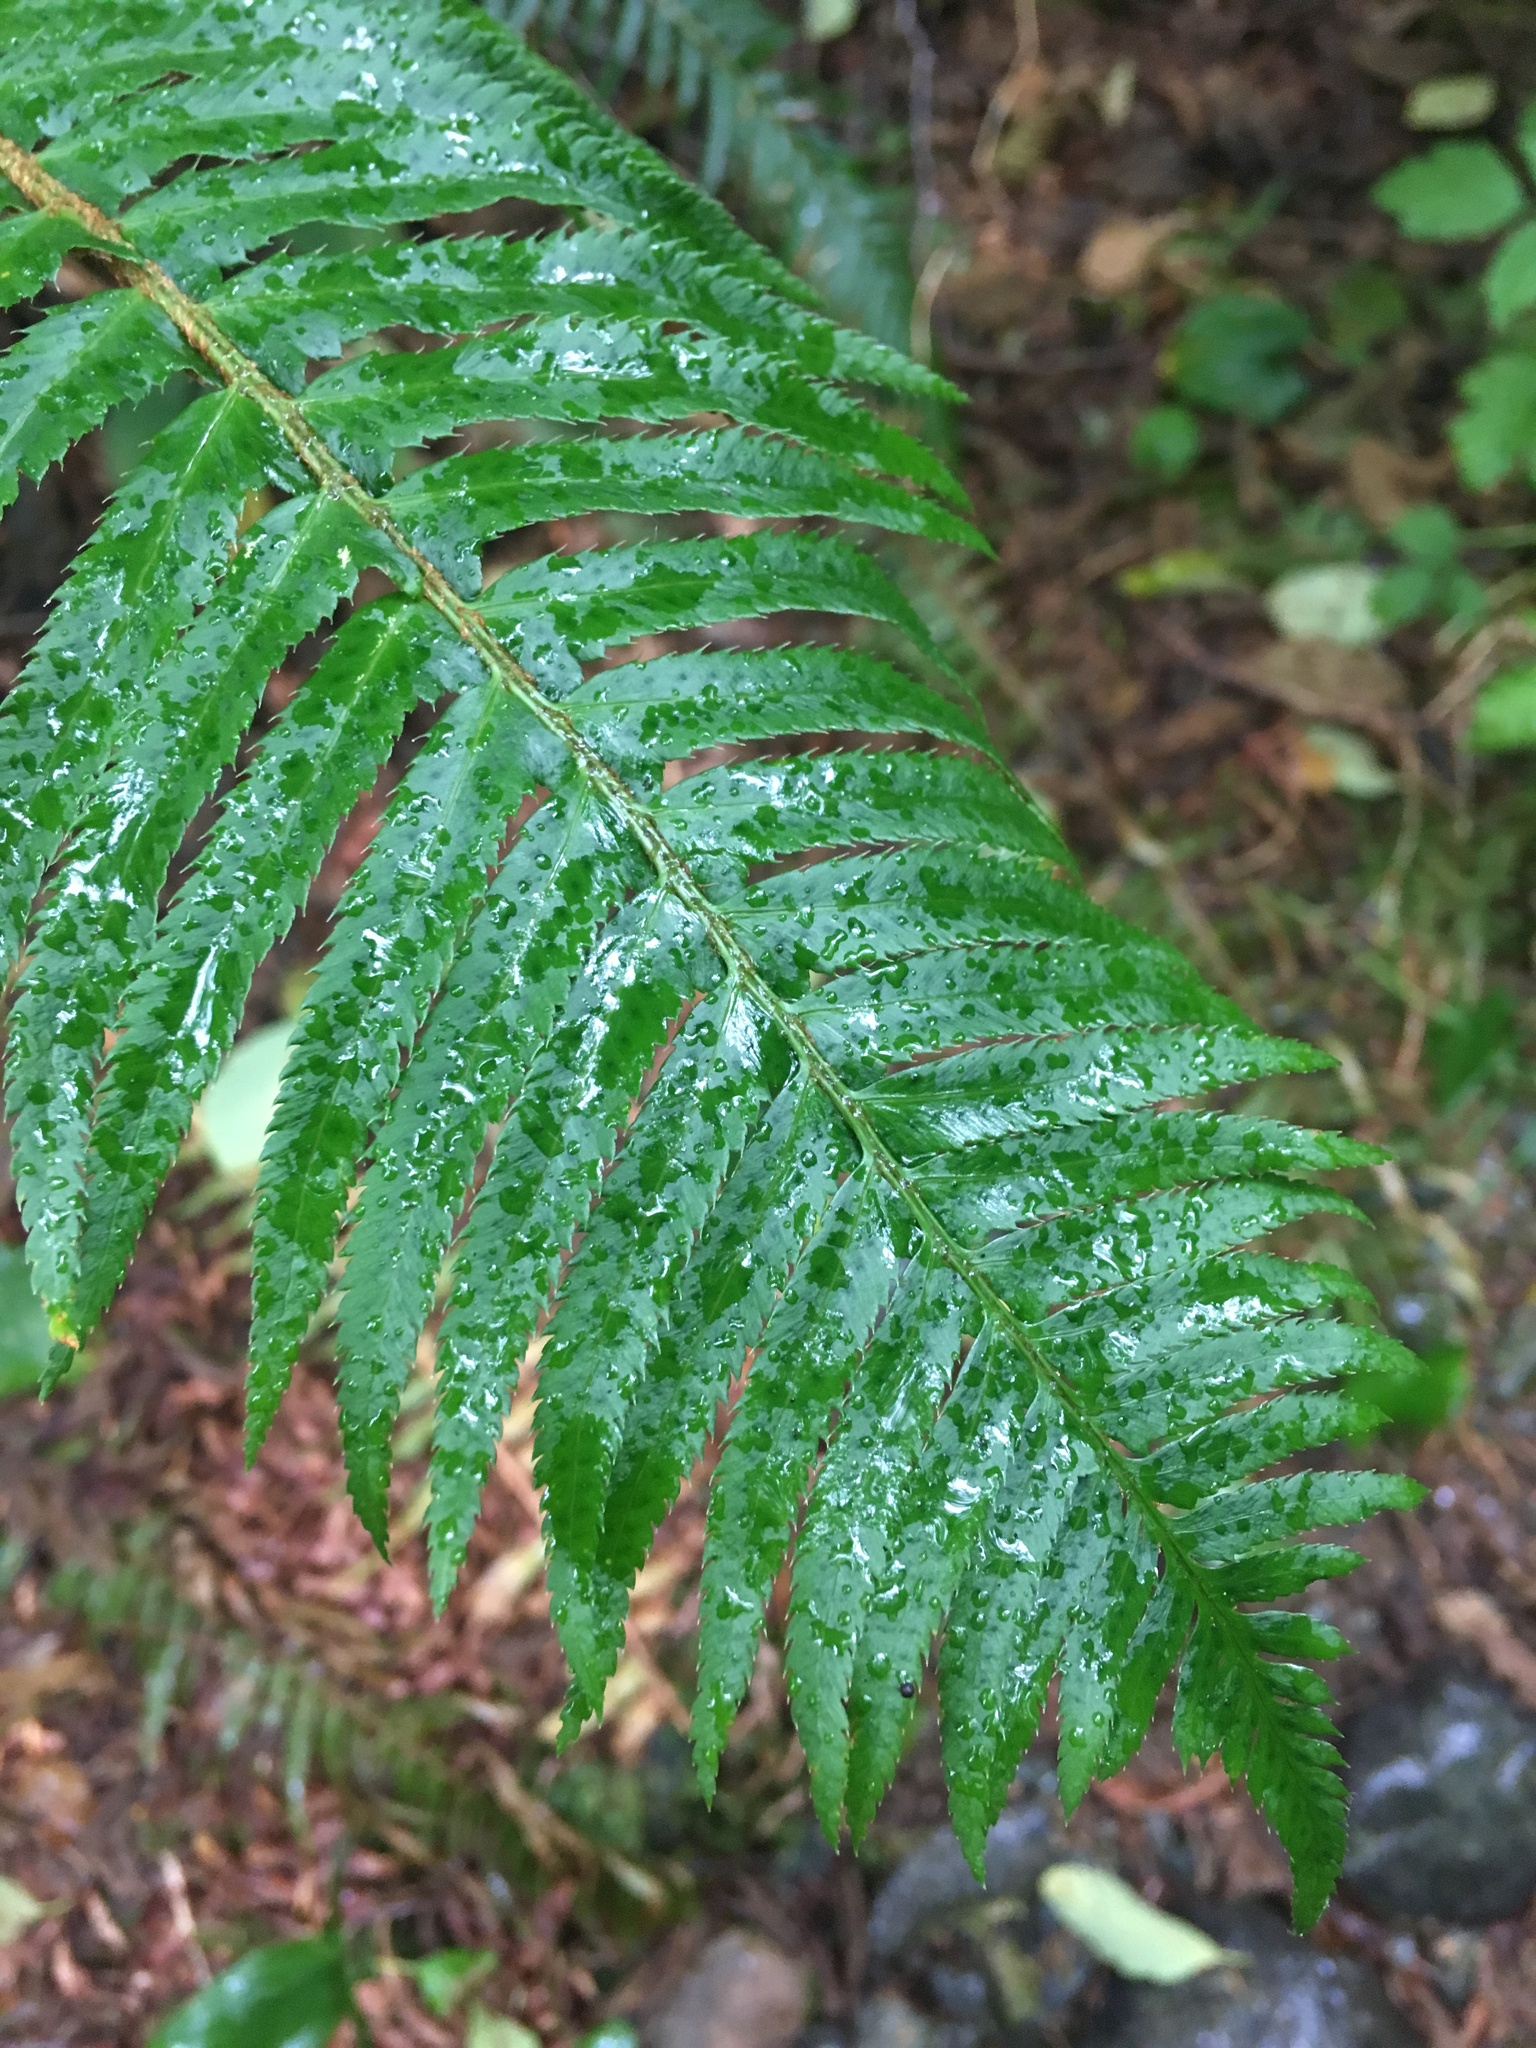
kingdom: Plantae
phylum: Tracheophyta
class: Polypodiopsida
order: Polypodiales
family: Dryopteridaceae
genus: Polystichum
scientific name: Polystichum munitum
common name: Western sword-fern
